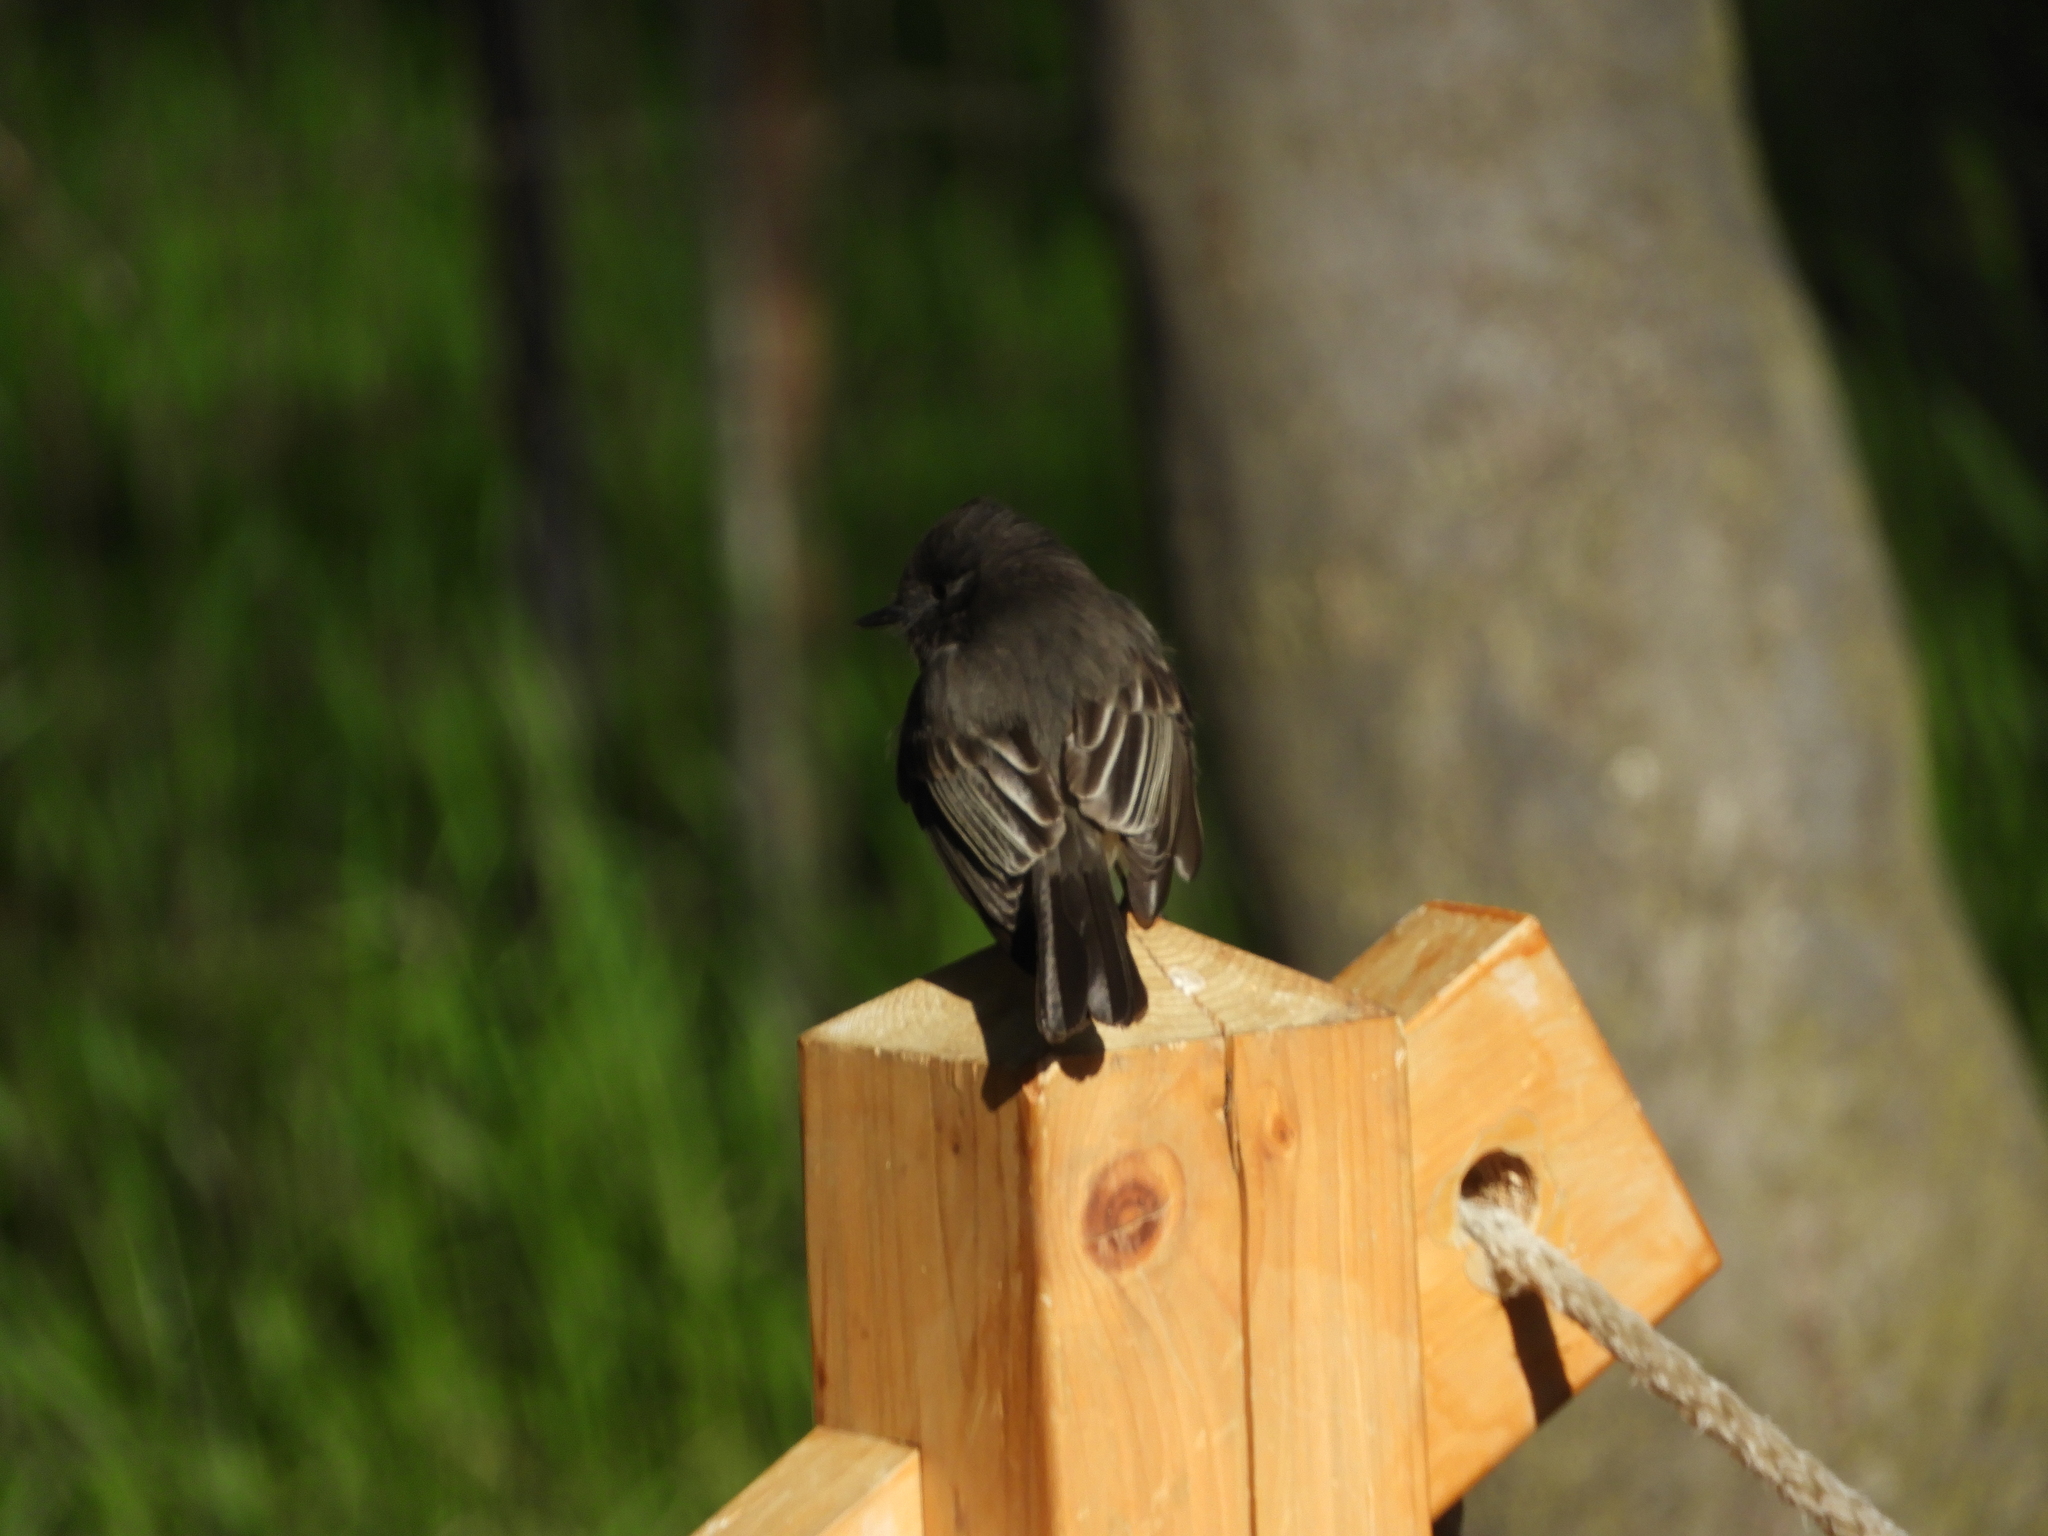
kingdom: Animalia
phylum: Chordata
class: Aves
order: Passeriformes
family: Tyrannidae
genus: Sayornis
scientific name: Sayornis nigricans
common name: Black phoebe
